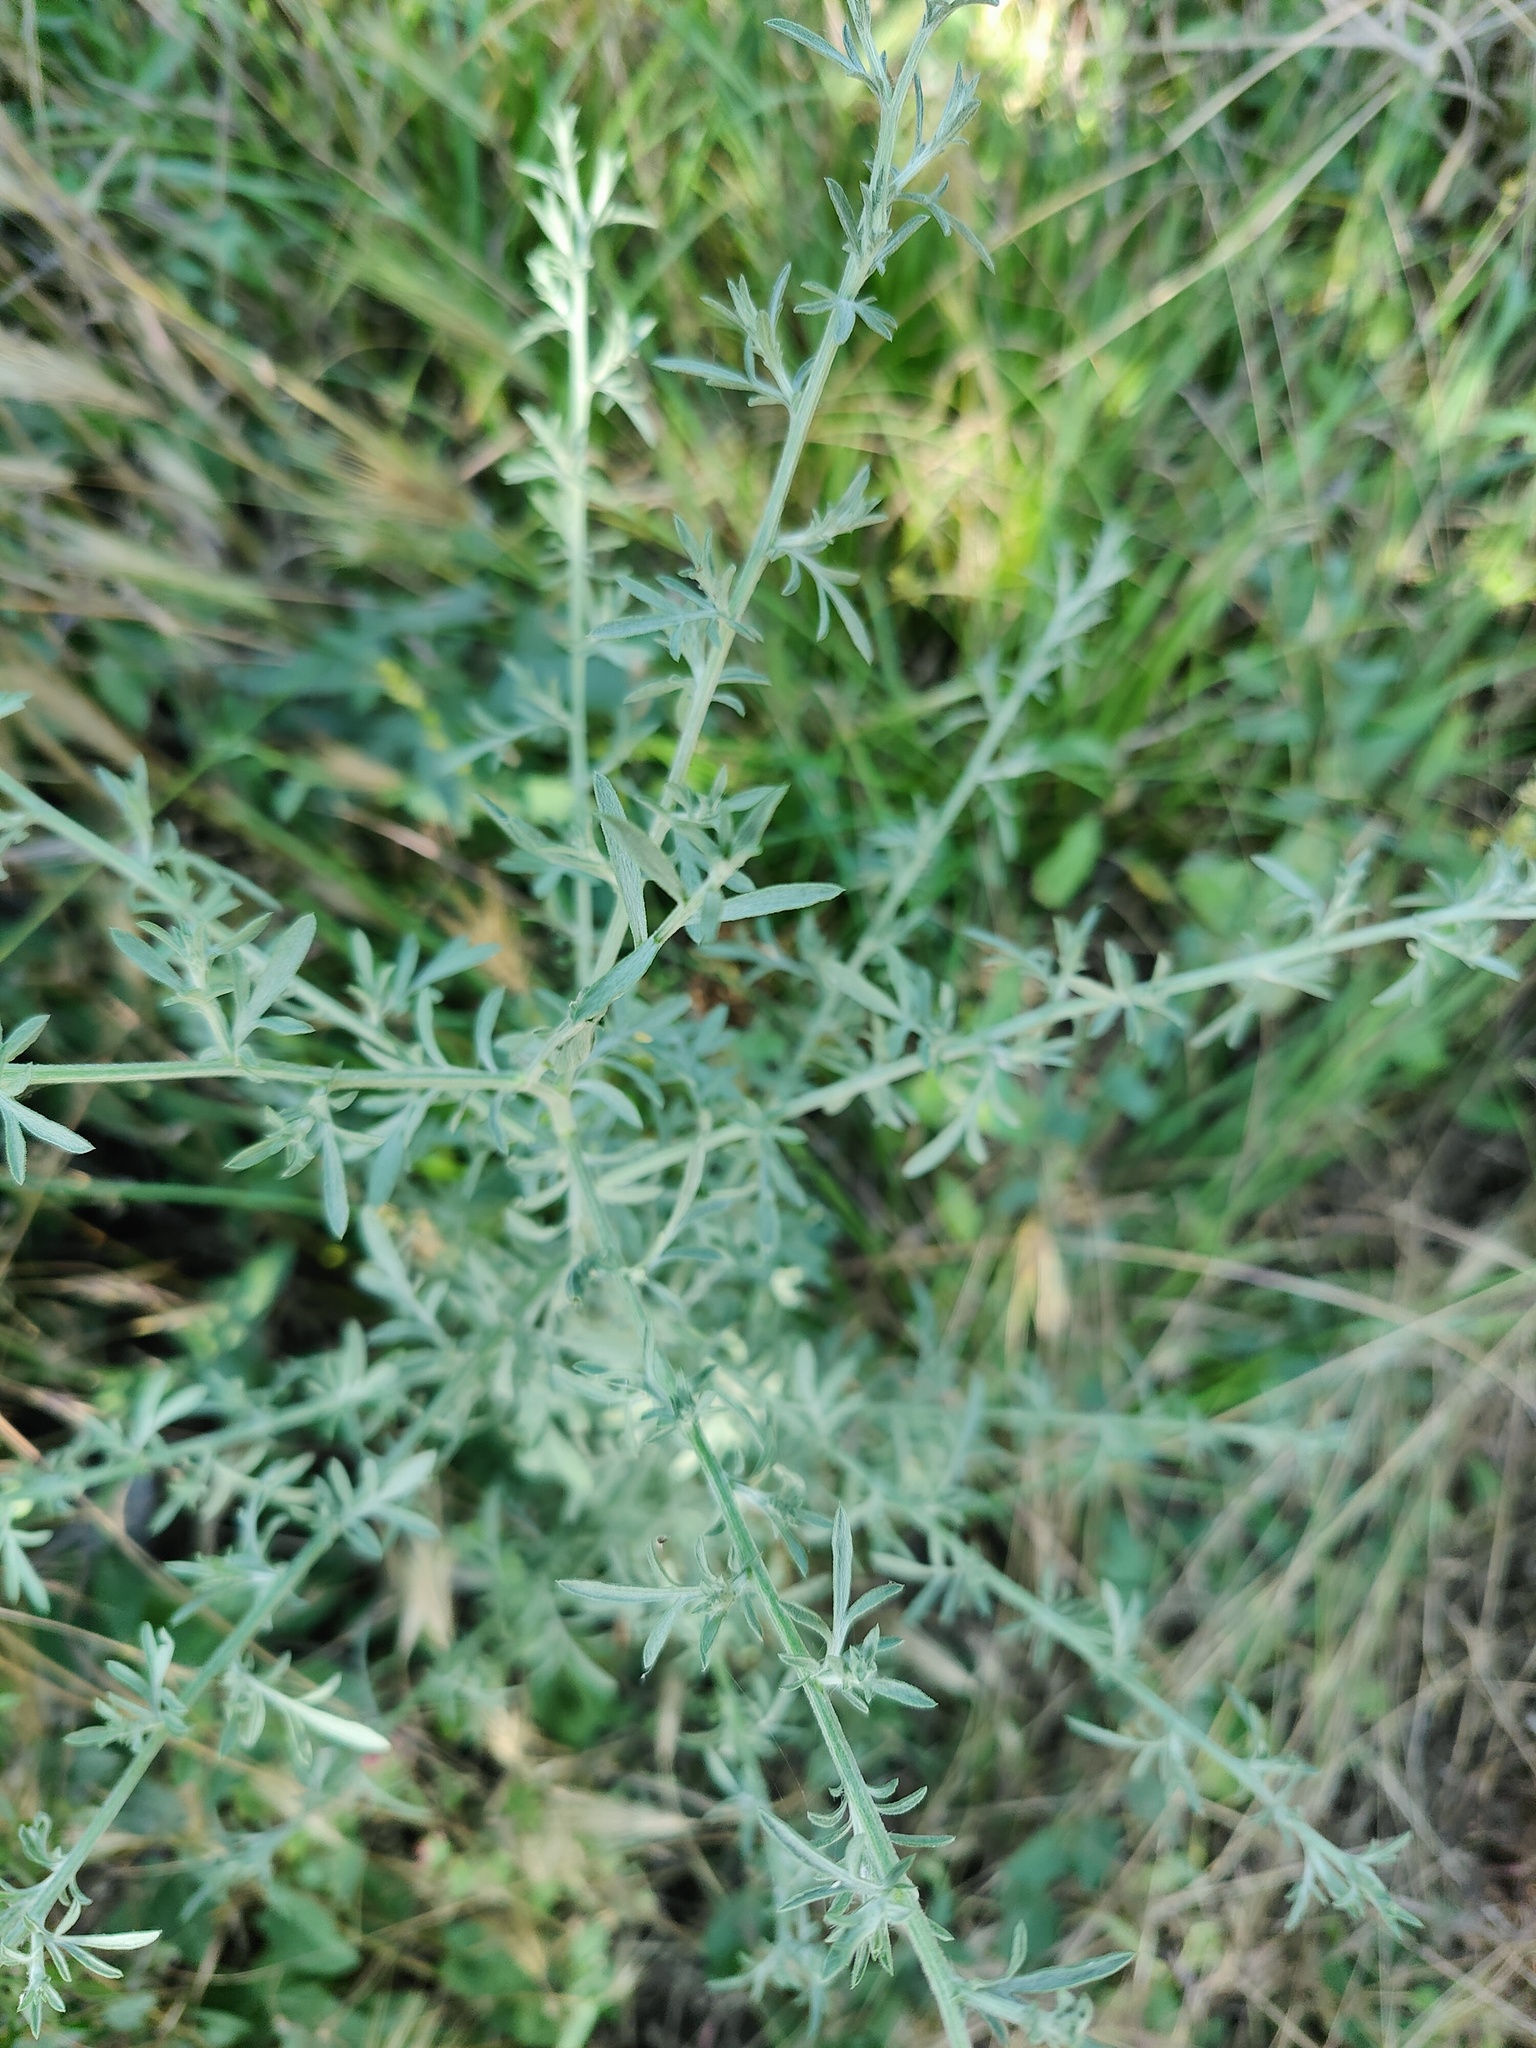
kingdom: Plantae
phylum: Tracheophyta
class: Magnoliopsida
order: Asterales
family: Asteraceae
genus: Centaurea
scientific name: Centaurea diffusa
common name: Diffuse knapweed
